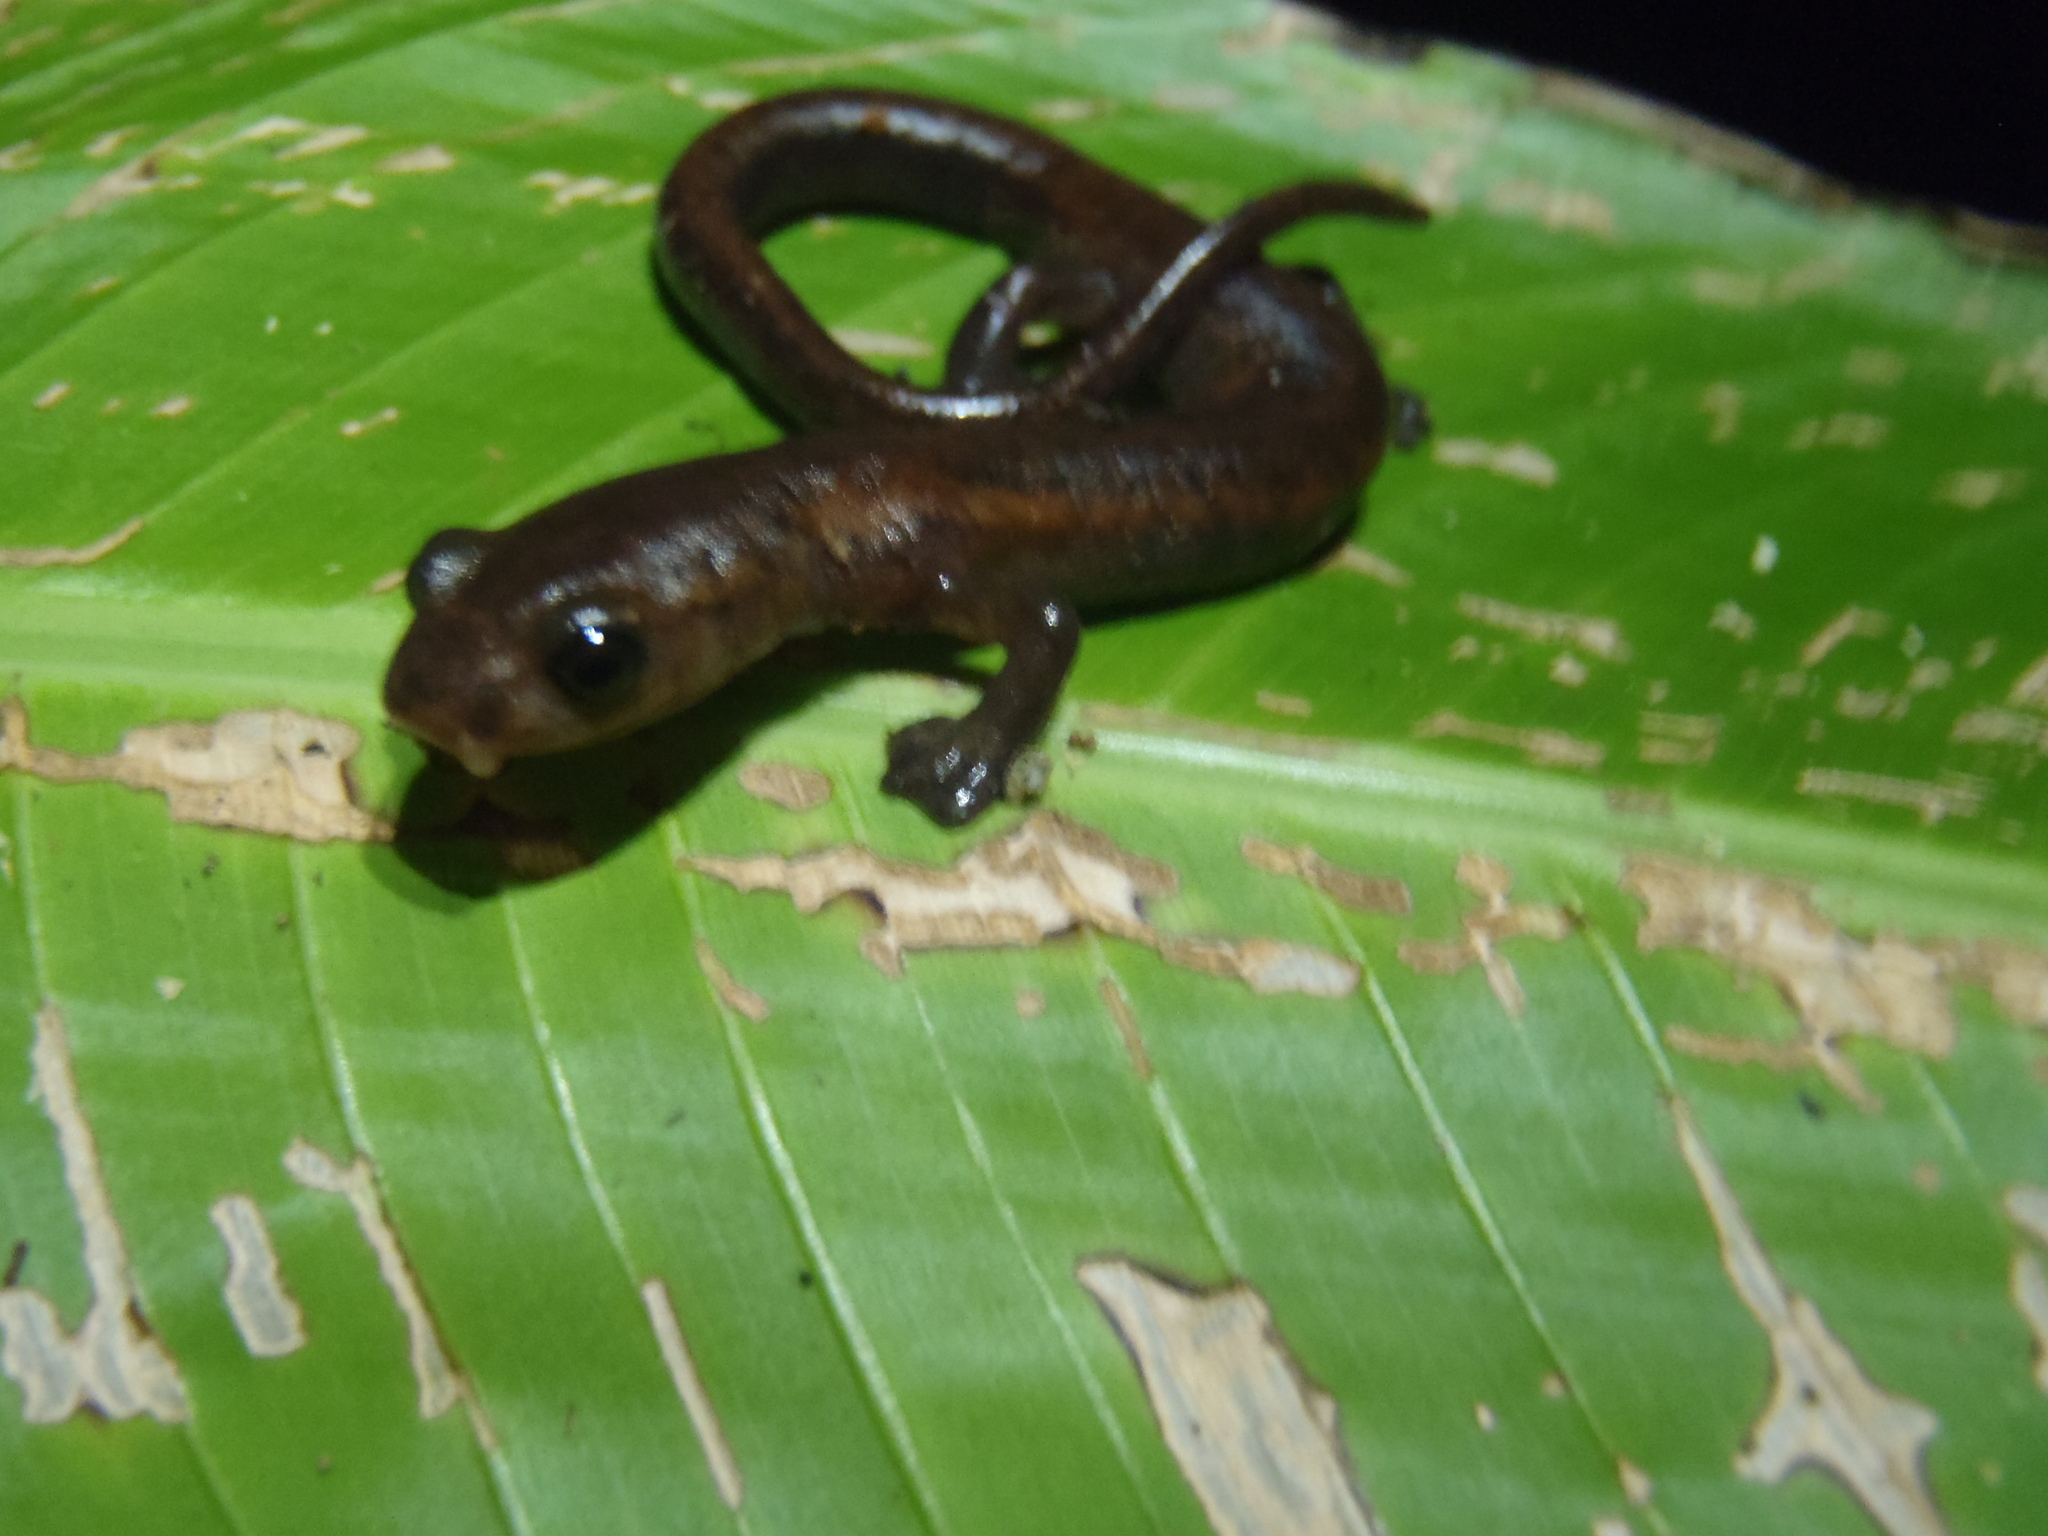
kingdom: Animalia
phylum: Chordata
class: Amphibia
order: Caudata
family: Plethodontidae
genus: Bolitoglossa
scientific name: Bolitoglossa mombachoensis
